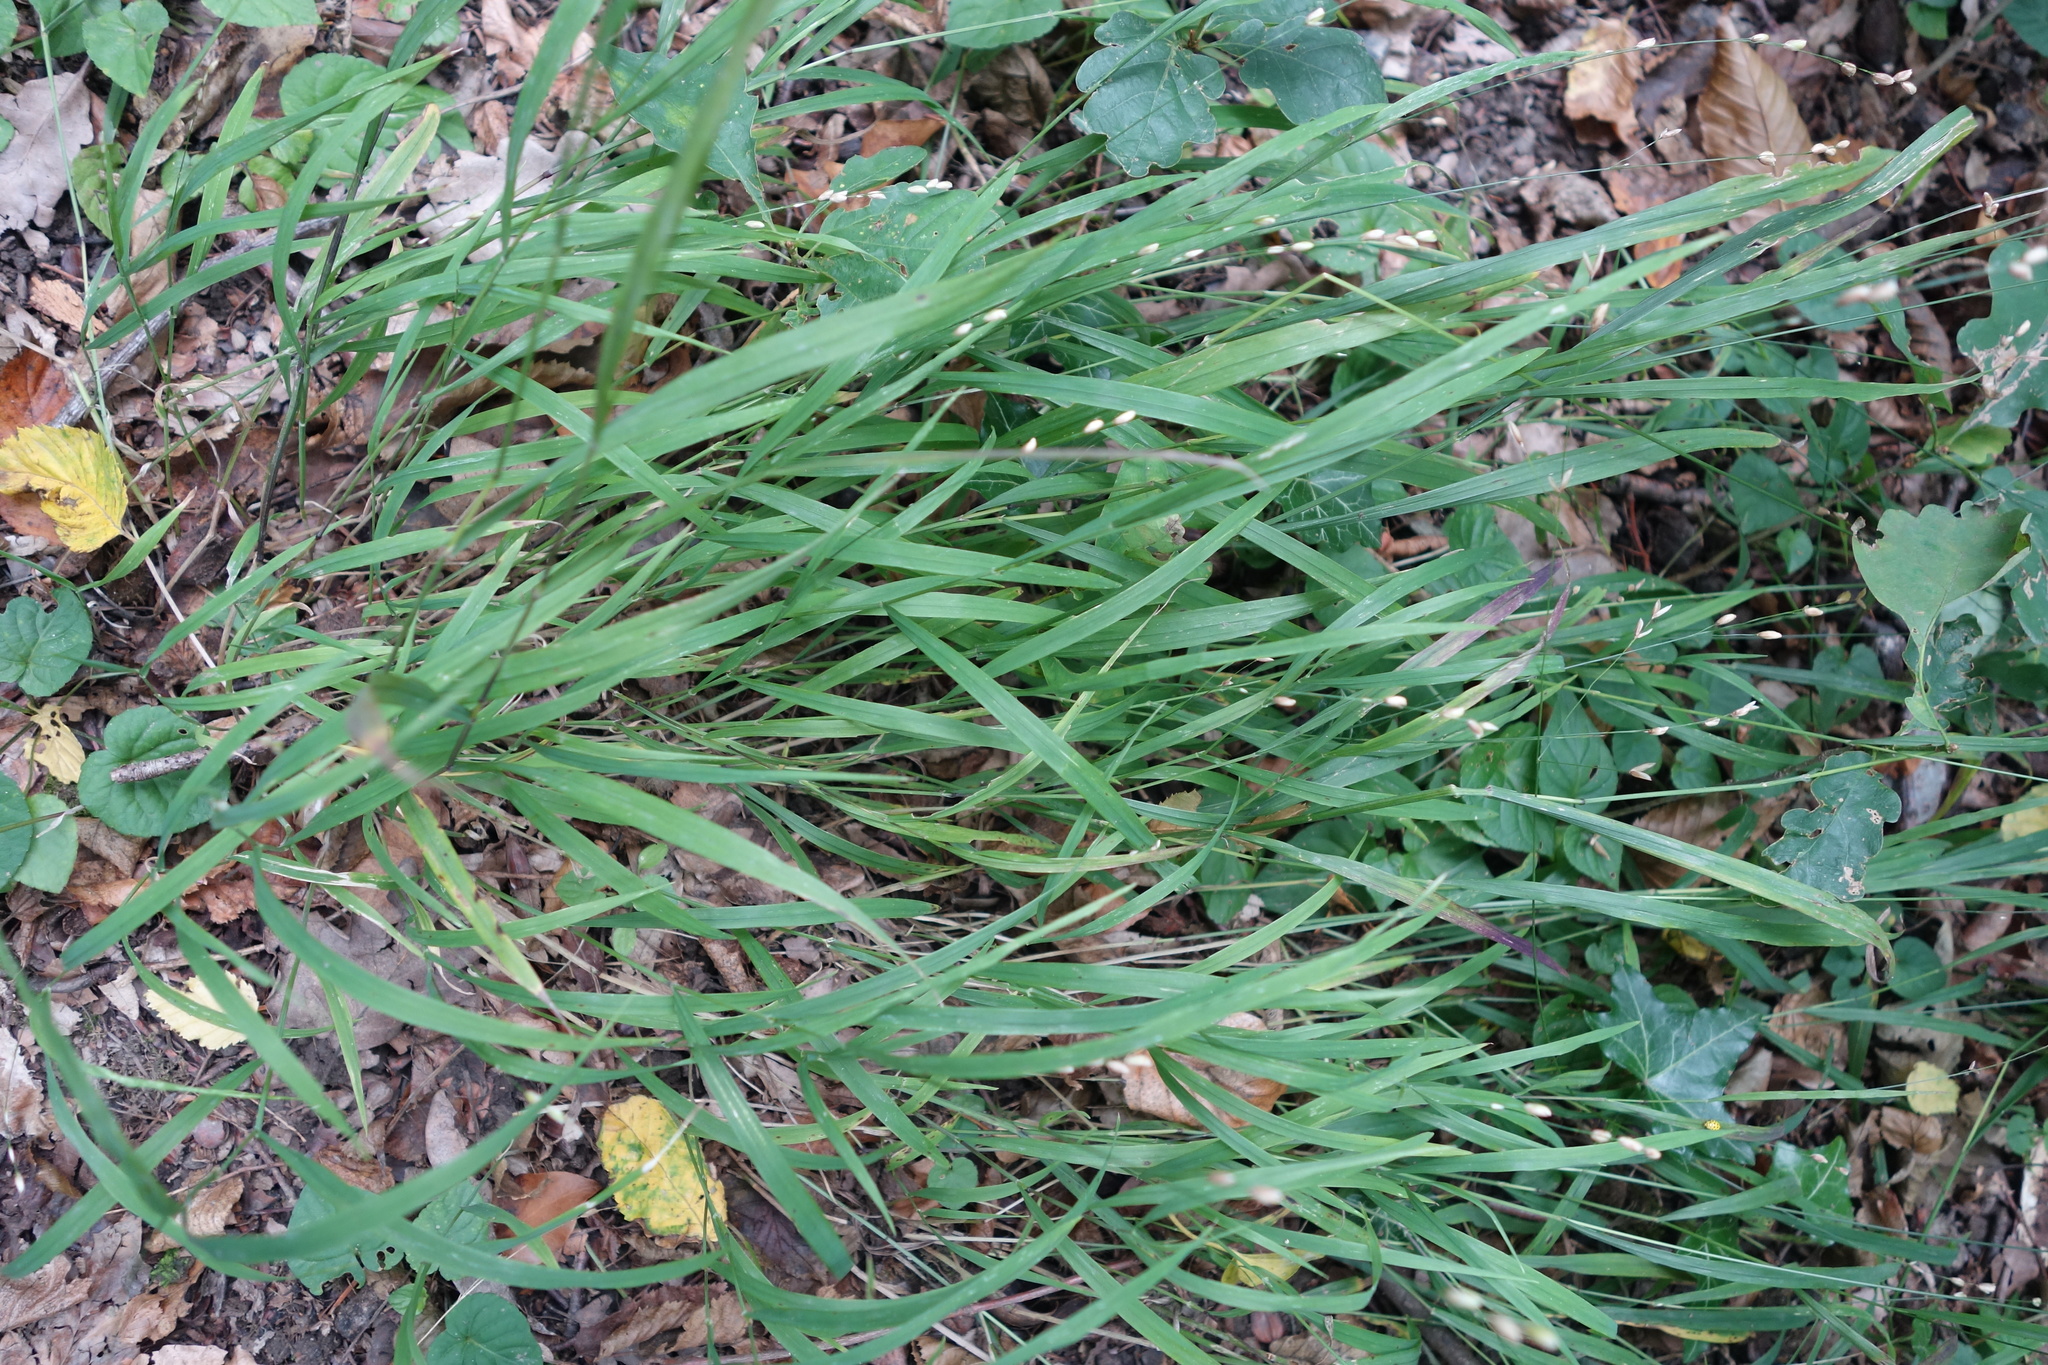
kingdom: Plantae
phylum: Tracheophyta
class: Liliopsida
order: Poales
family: Poaceae
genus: Melica
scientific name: Melica nutans
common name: Mountain melick
